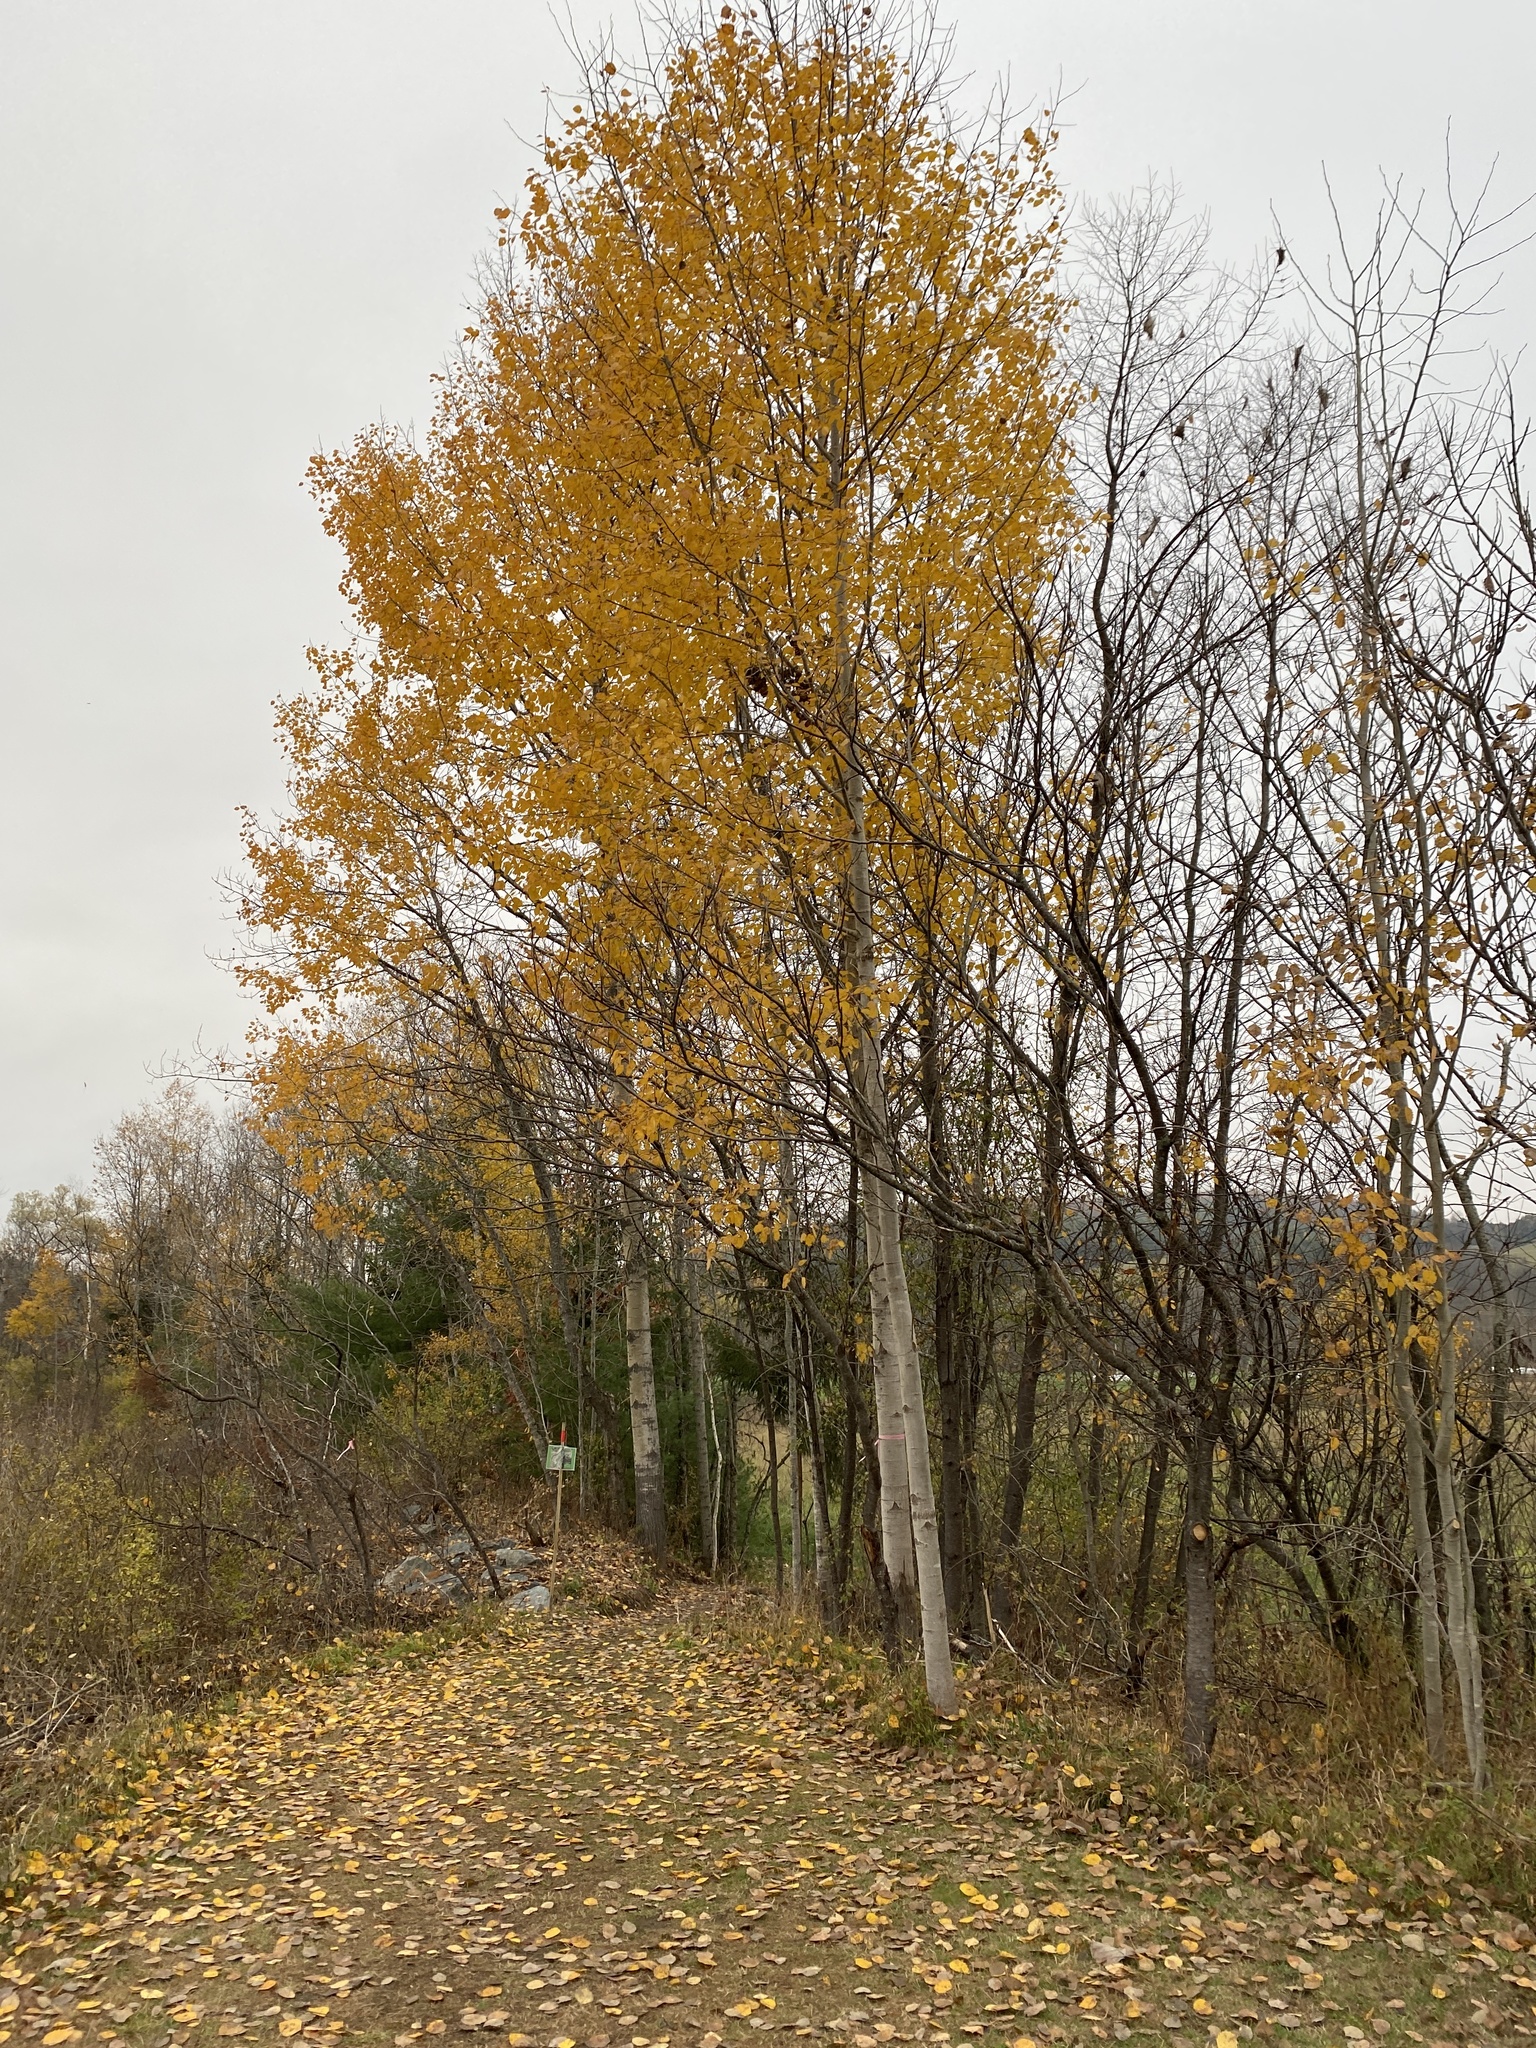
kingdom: Plantae
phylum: Tracheophyta
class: Magnoliopsida
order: Malpighiales
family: Salicaceae
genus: Populus
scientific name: Populus grandidentata
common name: Bigtooth aspen
